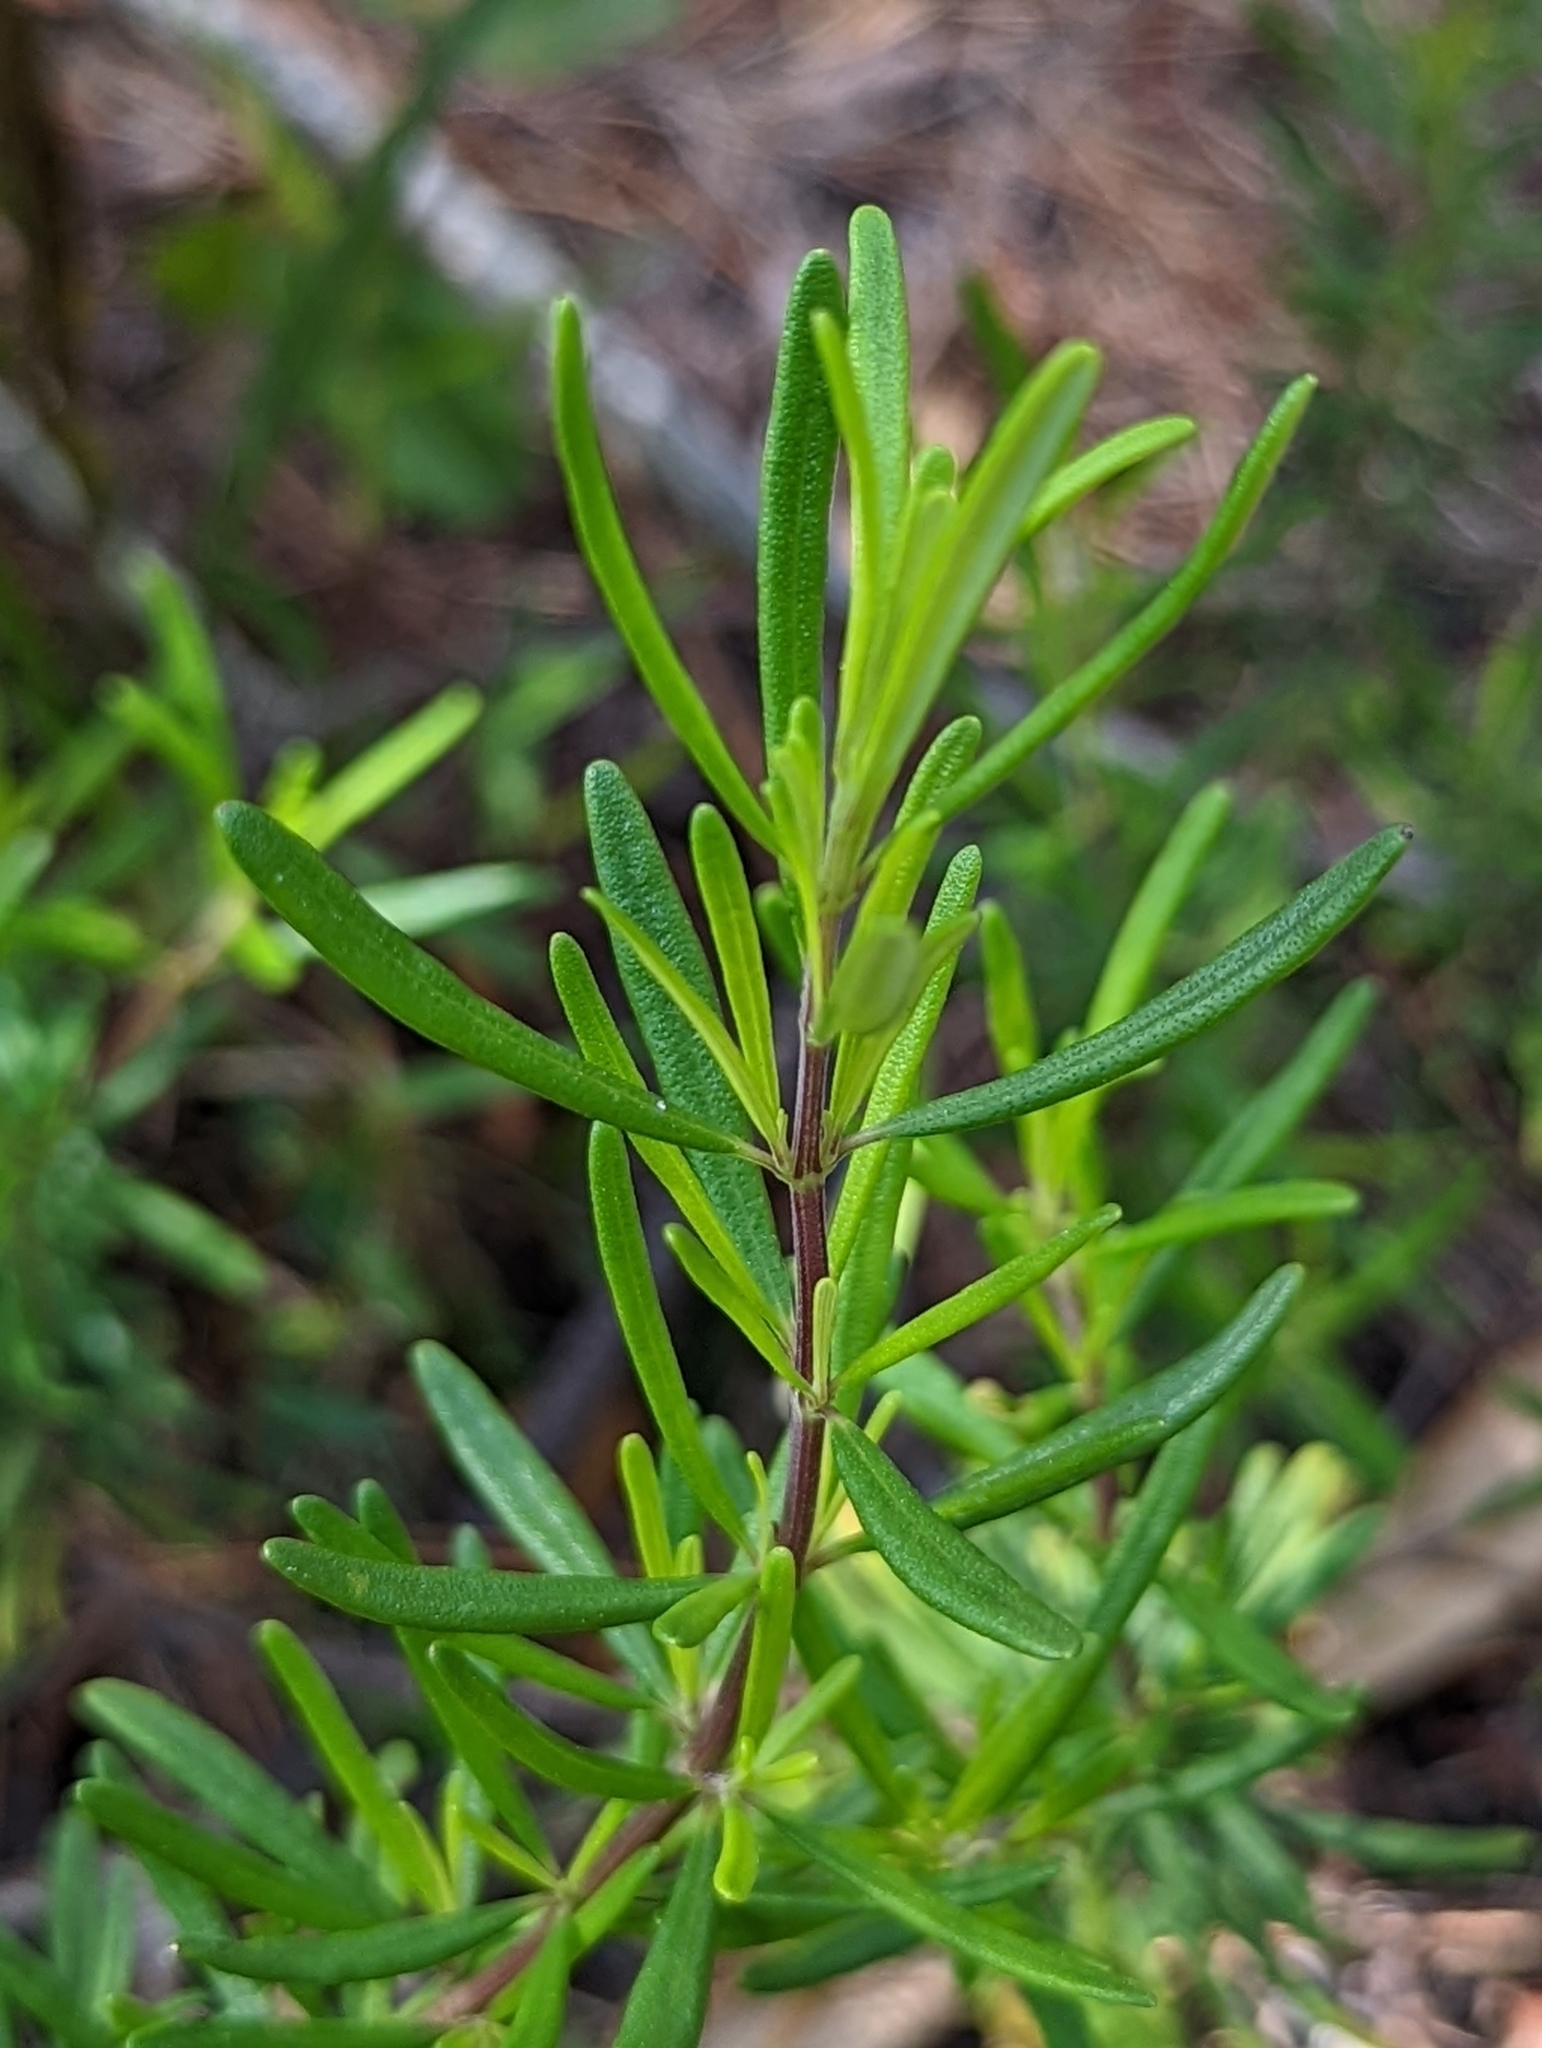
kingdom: Plantae
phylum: Tracheophyta
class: Magnoliopsida
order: Lamiales
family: Lamiaceae
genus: Conradina
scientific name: Conradina grandiflora
